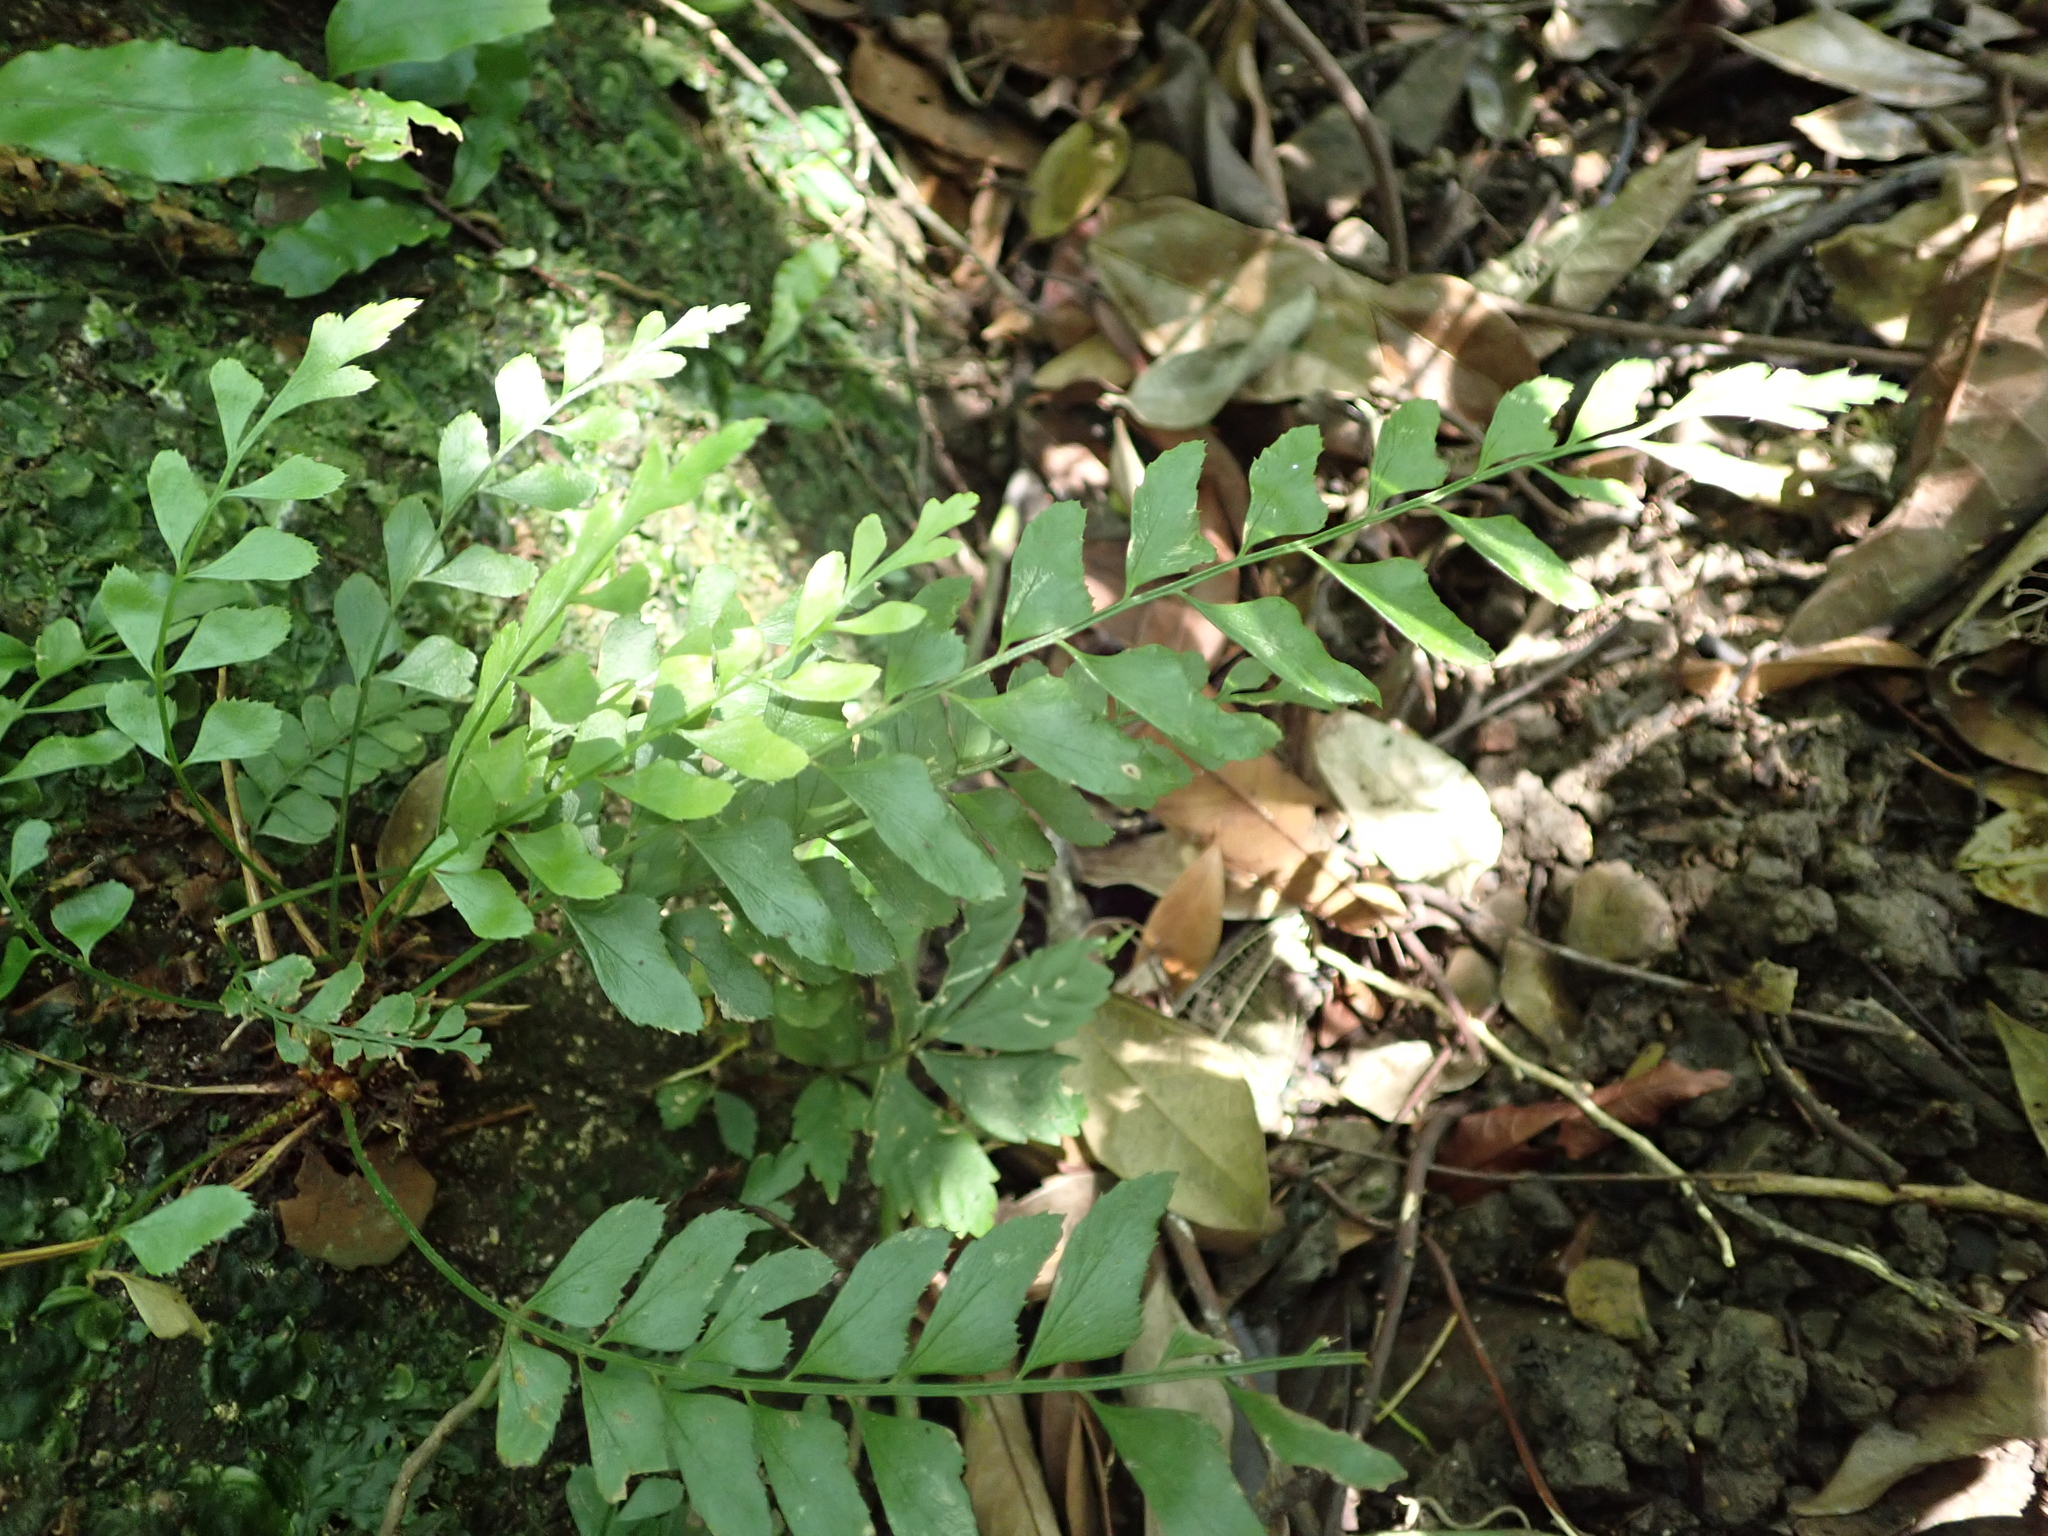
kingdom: Plantae
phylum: Tracheophyta
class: Polypodiopsida
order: Polypodiales
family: Dryopteridaceae
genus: Polystichum
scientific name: Polystichum formosanum
